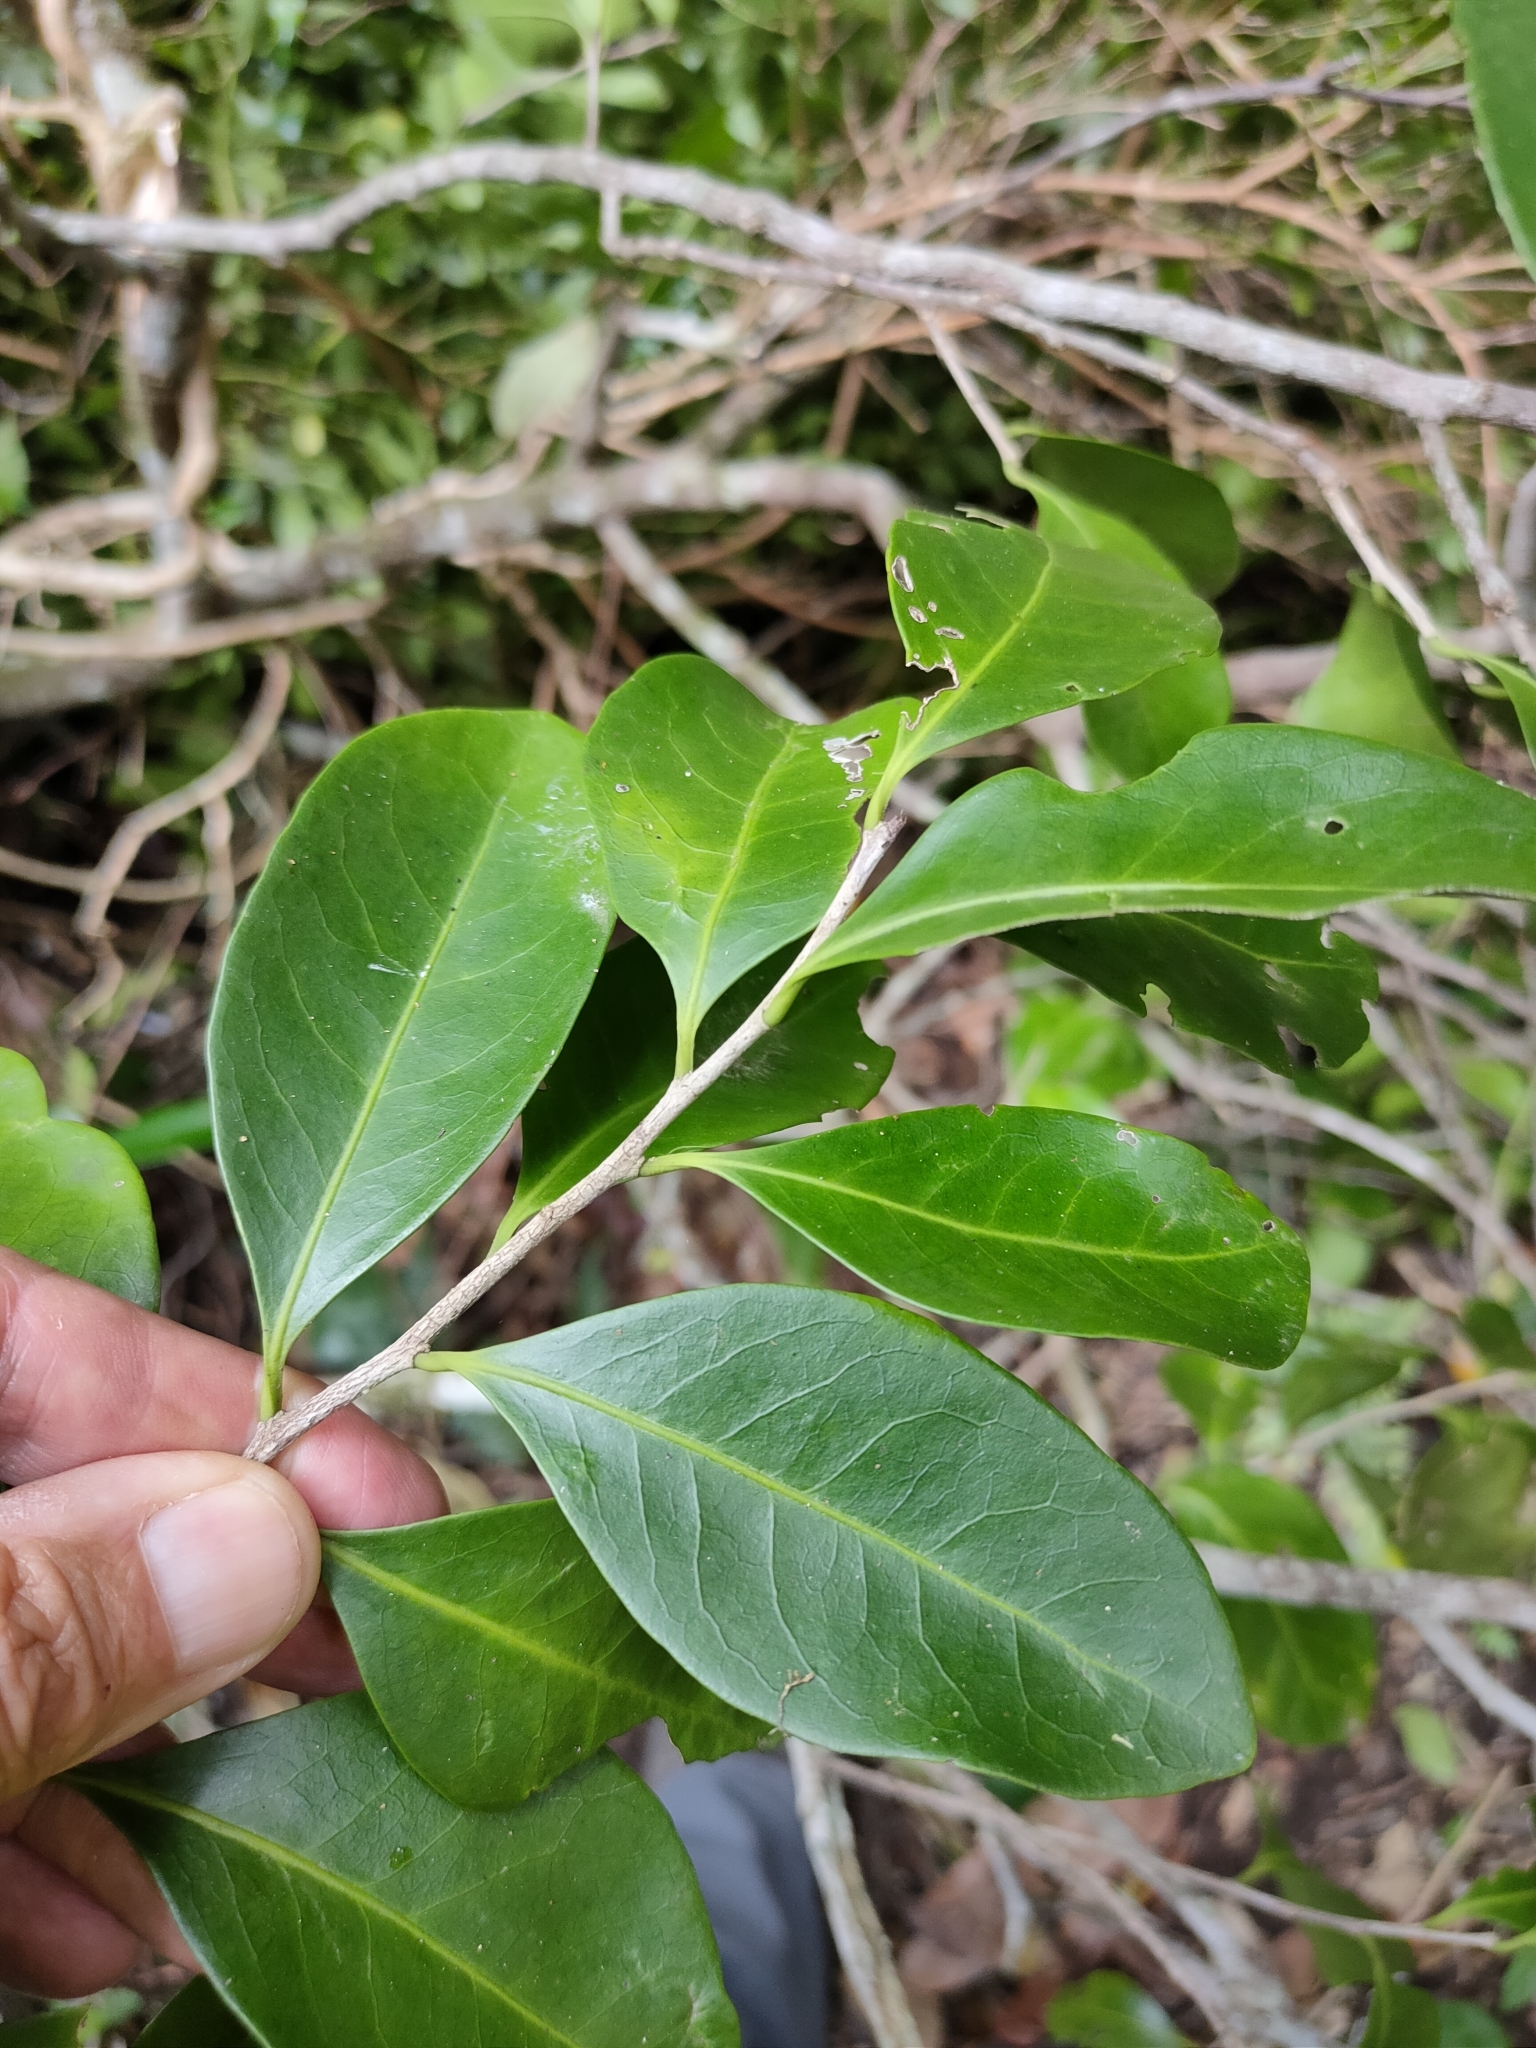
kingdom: Plantae
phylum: Tracheophyta
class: Magnoliopsida
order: Celastrales
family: Celastraceae
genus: Siphonodon
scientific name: Siphonodon australis
